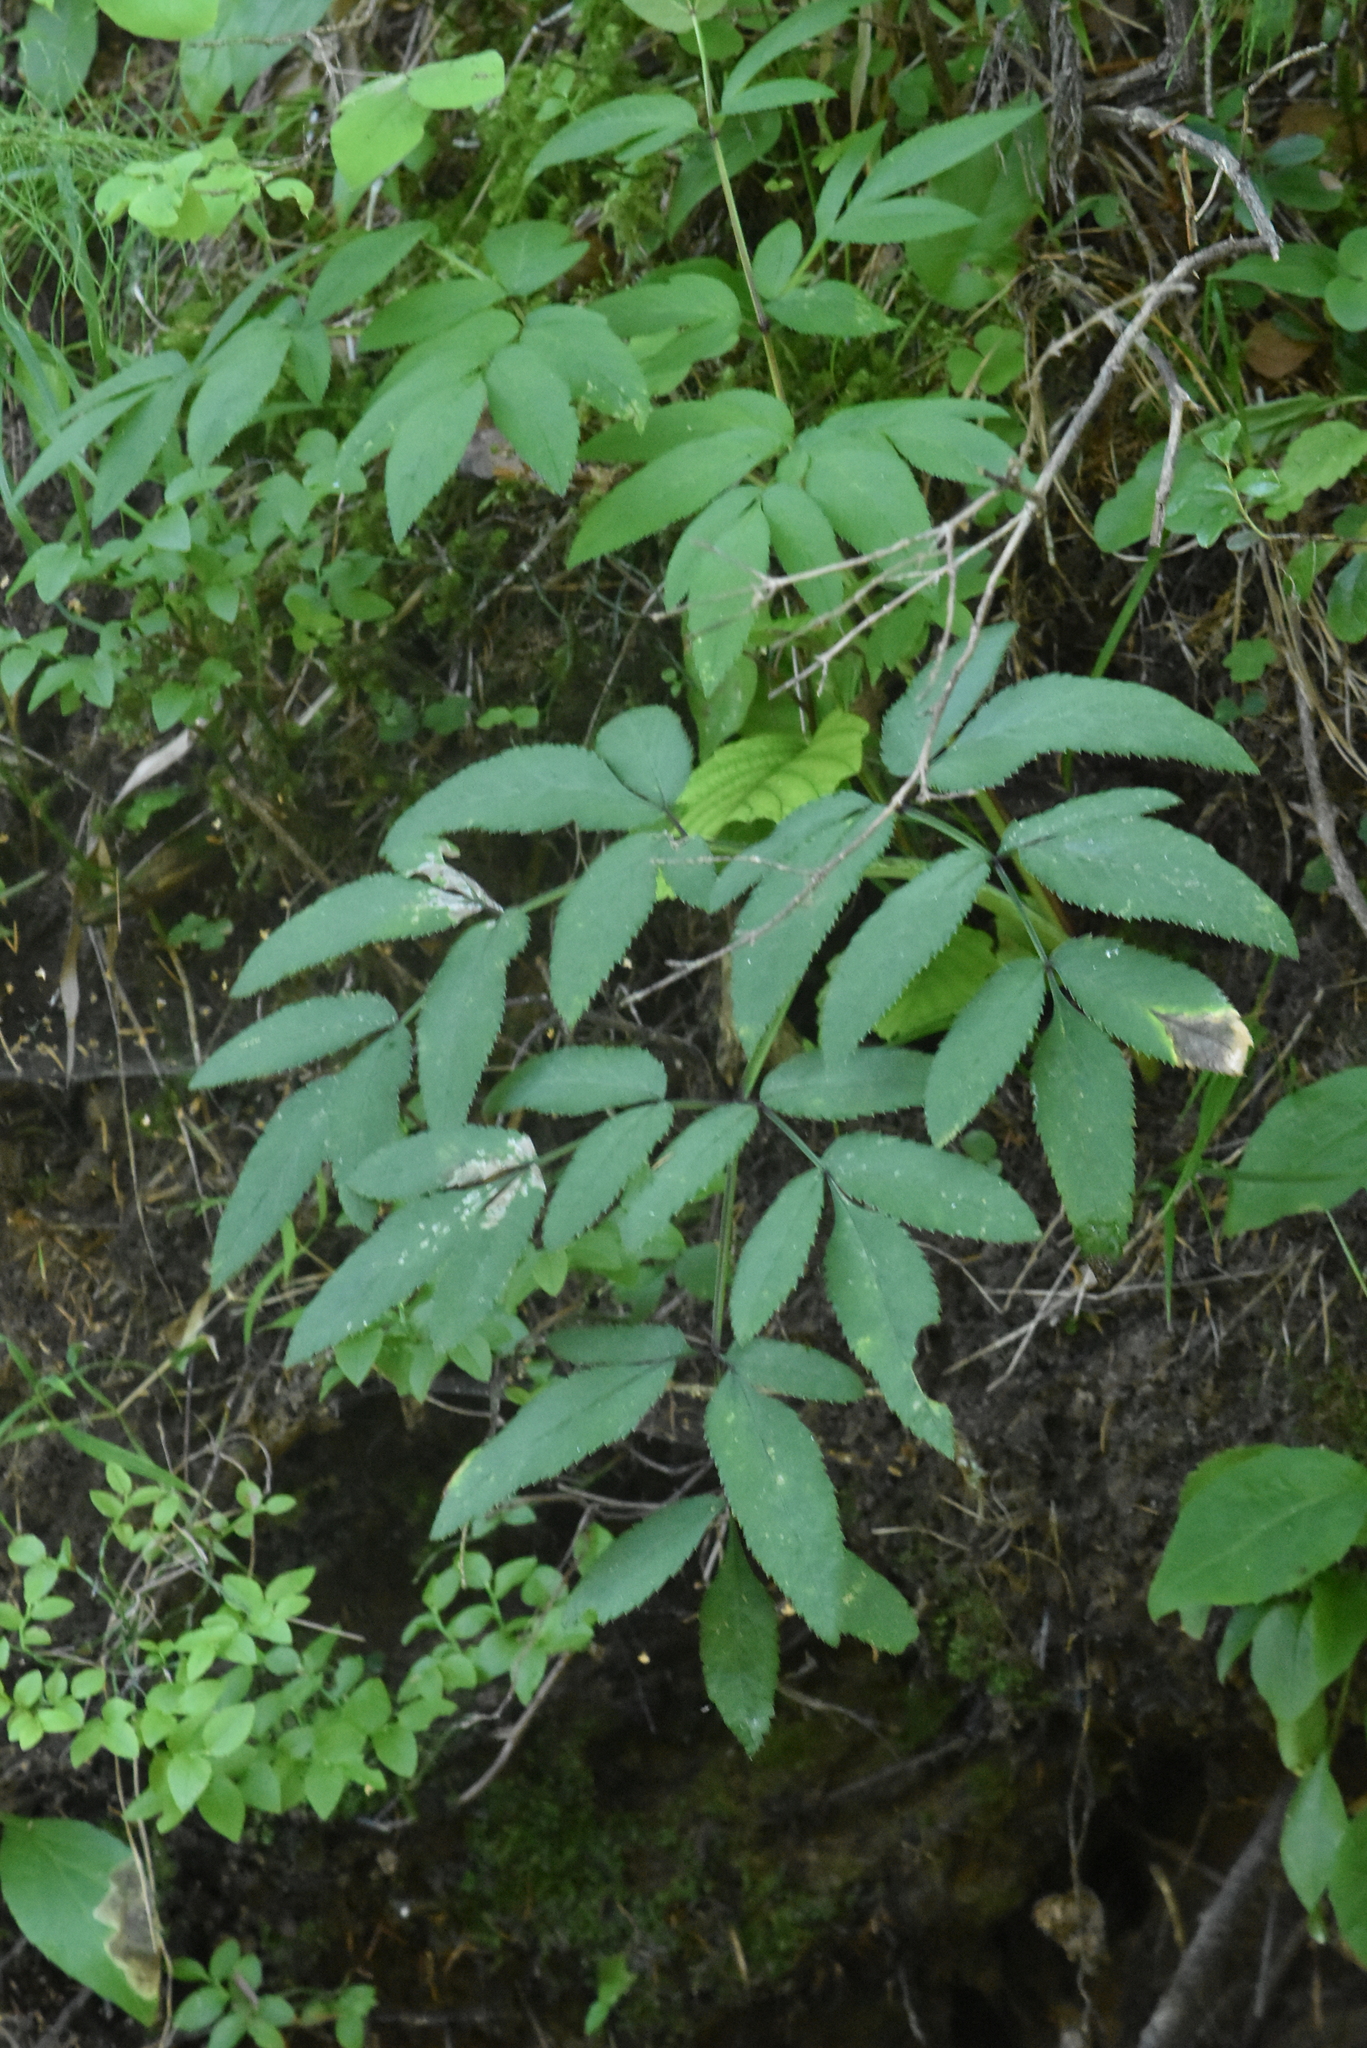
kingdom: Plantae
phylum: Tracheophyta
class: Magnoliopsida
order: Apiales
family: Apiaceae
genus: Angelica
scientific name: Angelica sylvestris
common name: Wild angelica
